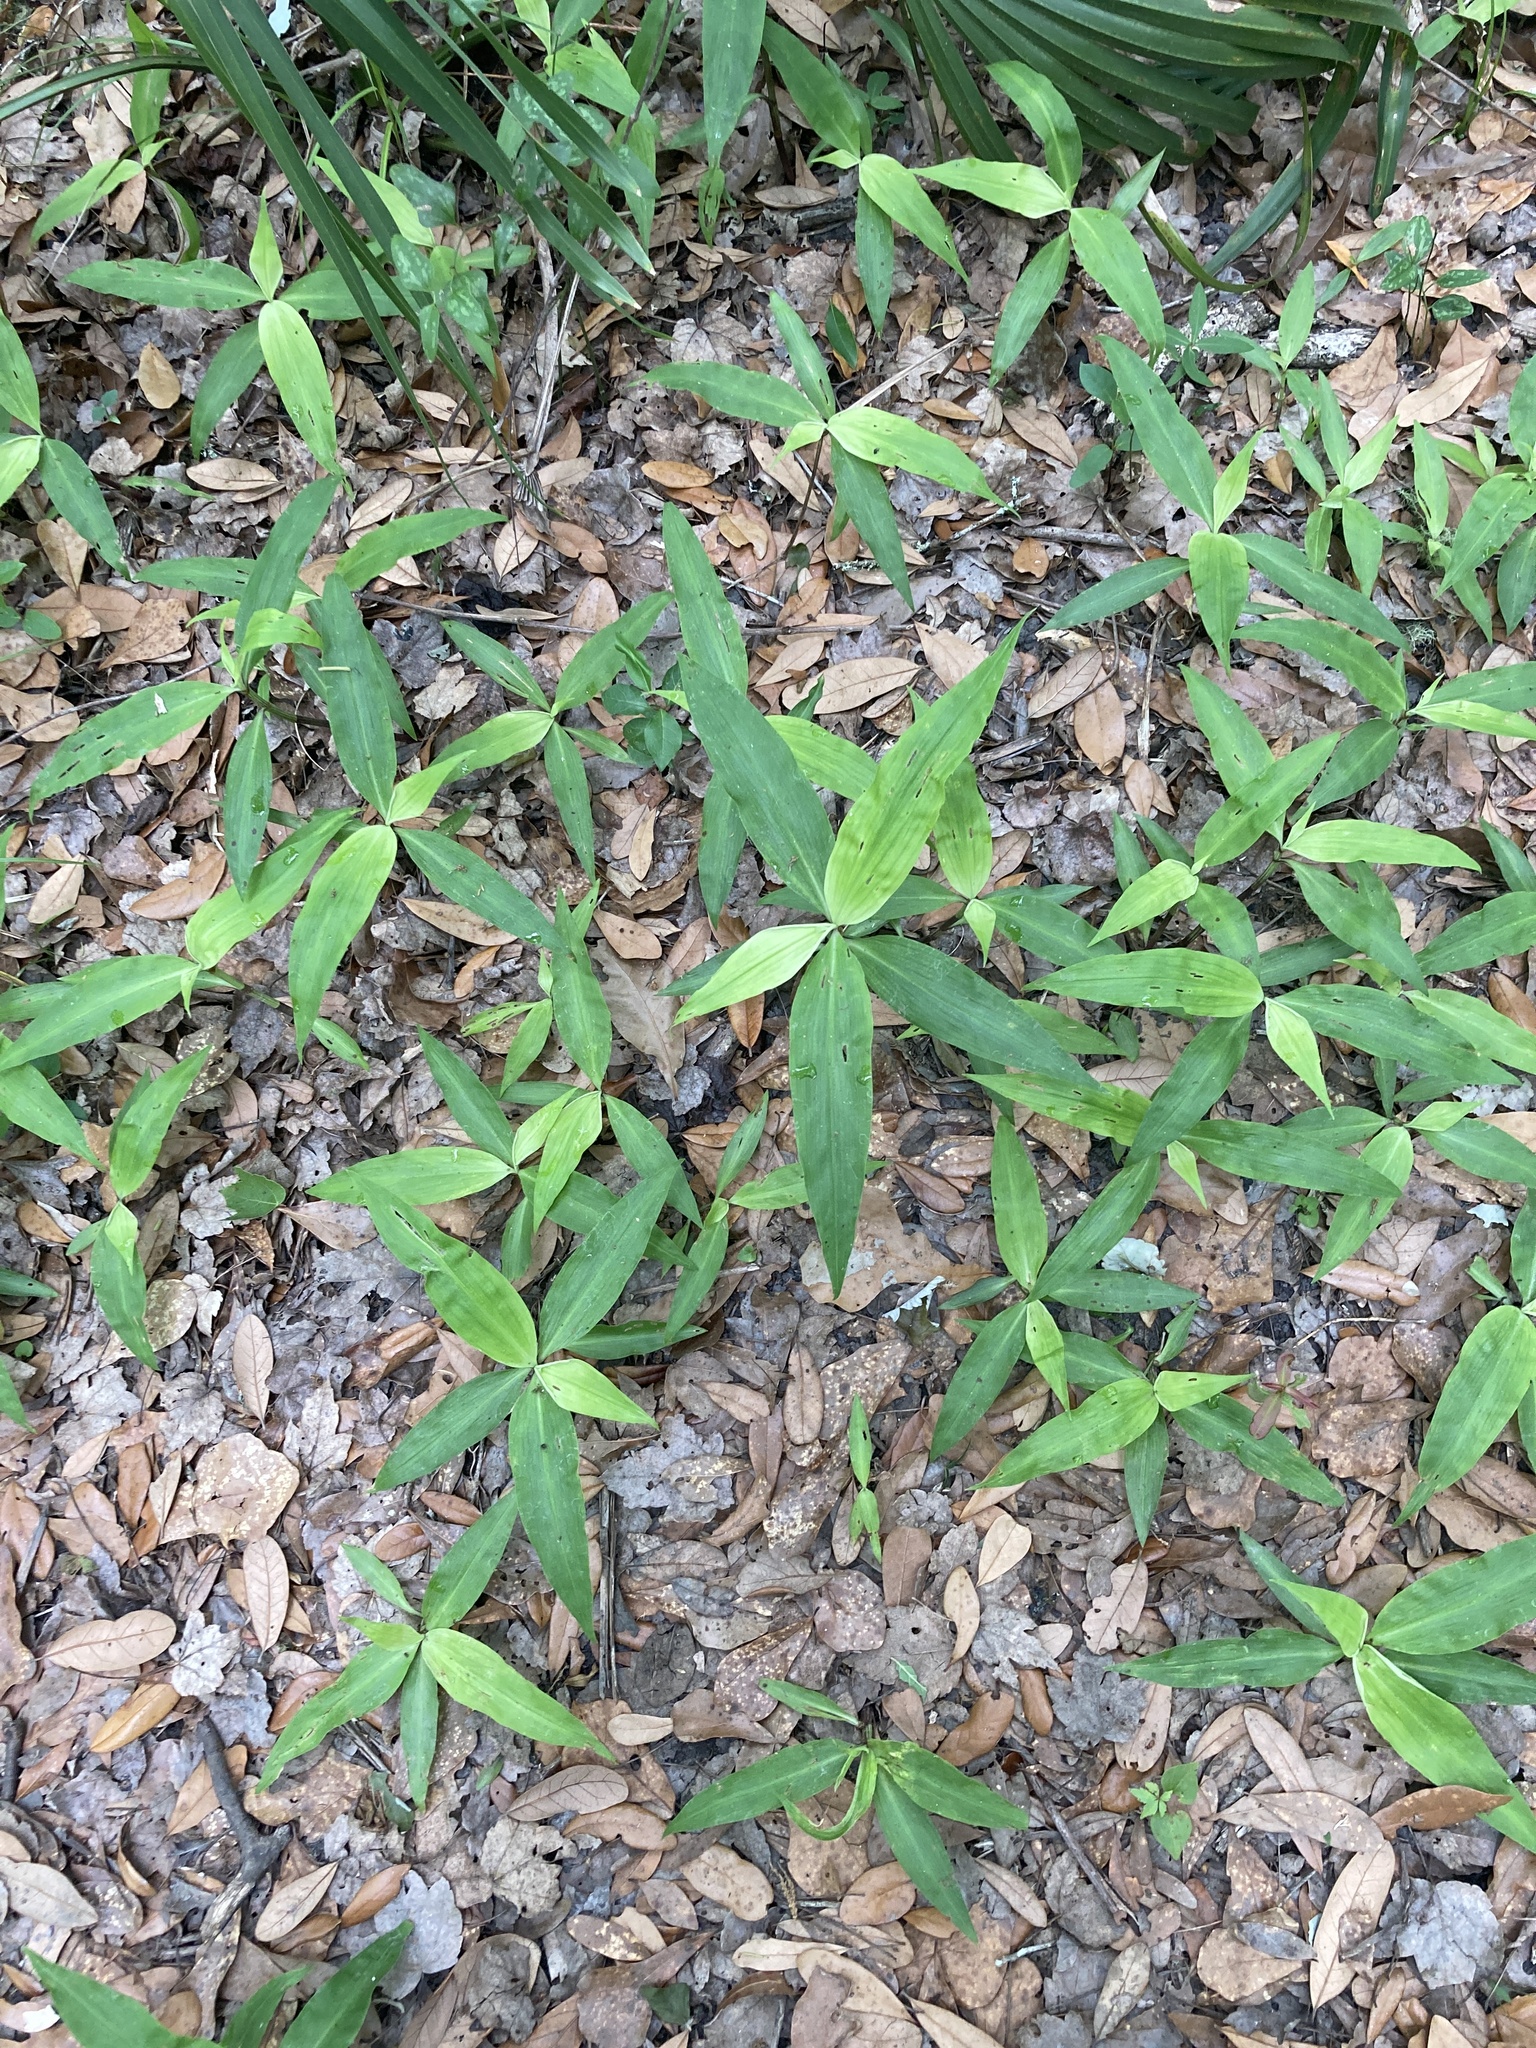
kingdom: Plantae
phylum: Tracheophyta
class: Liliopsida
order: Commelinales
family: Commelinaceae
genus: Commelina
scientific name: Commelina virginica
